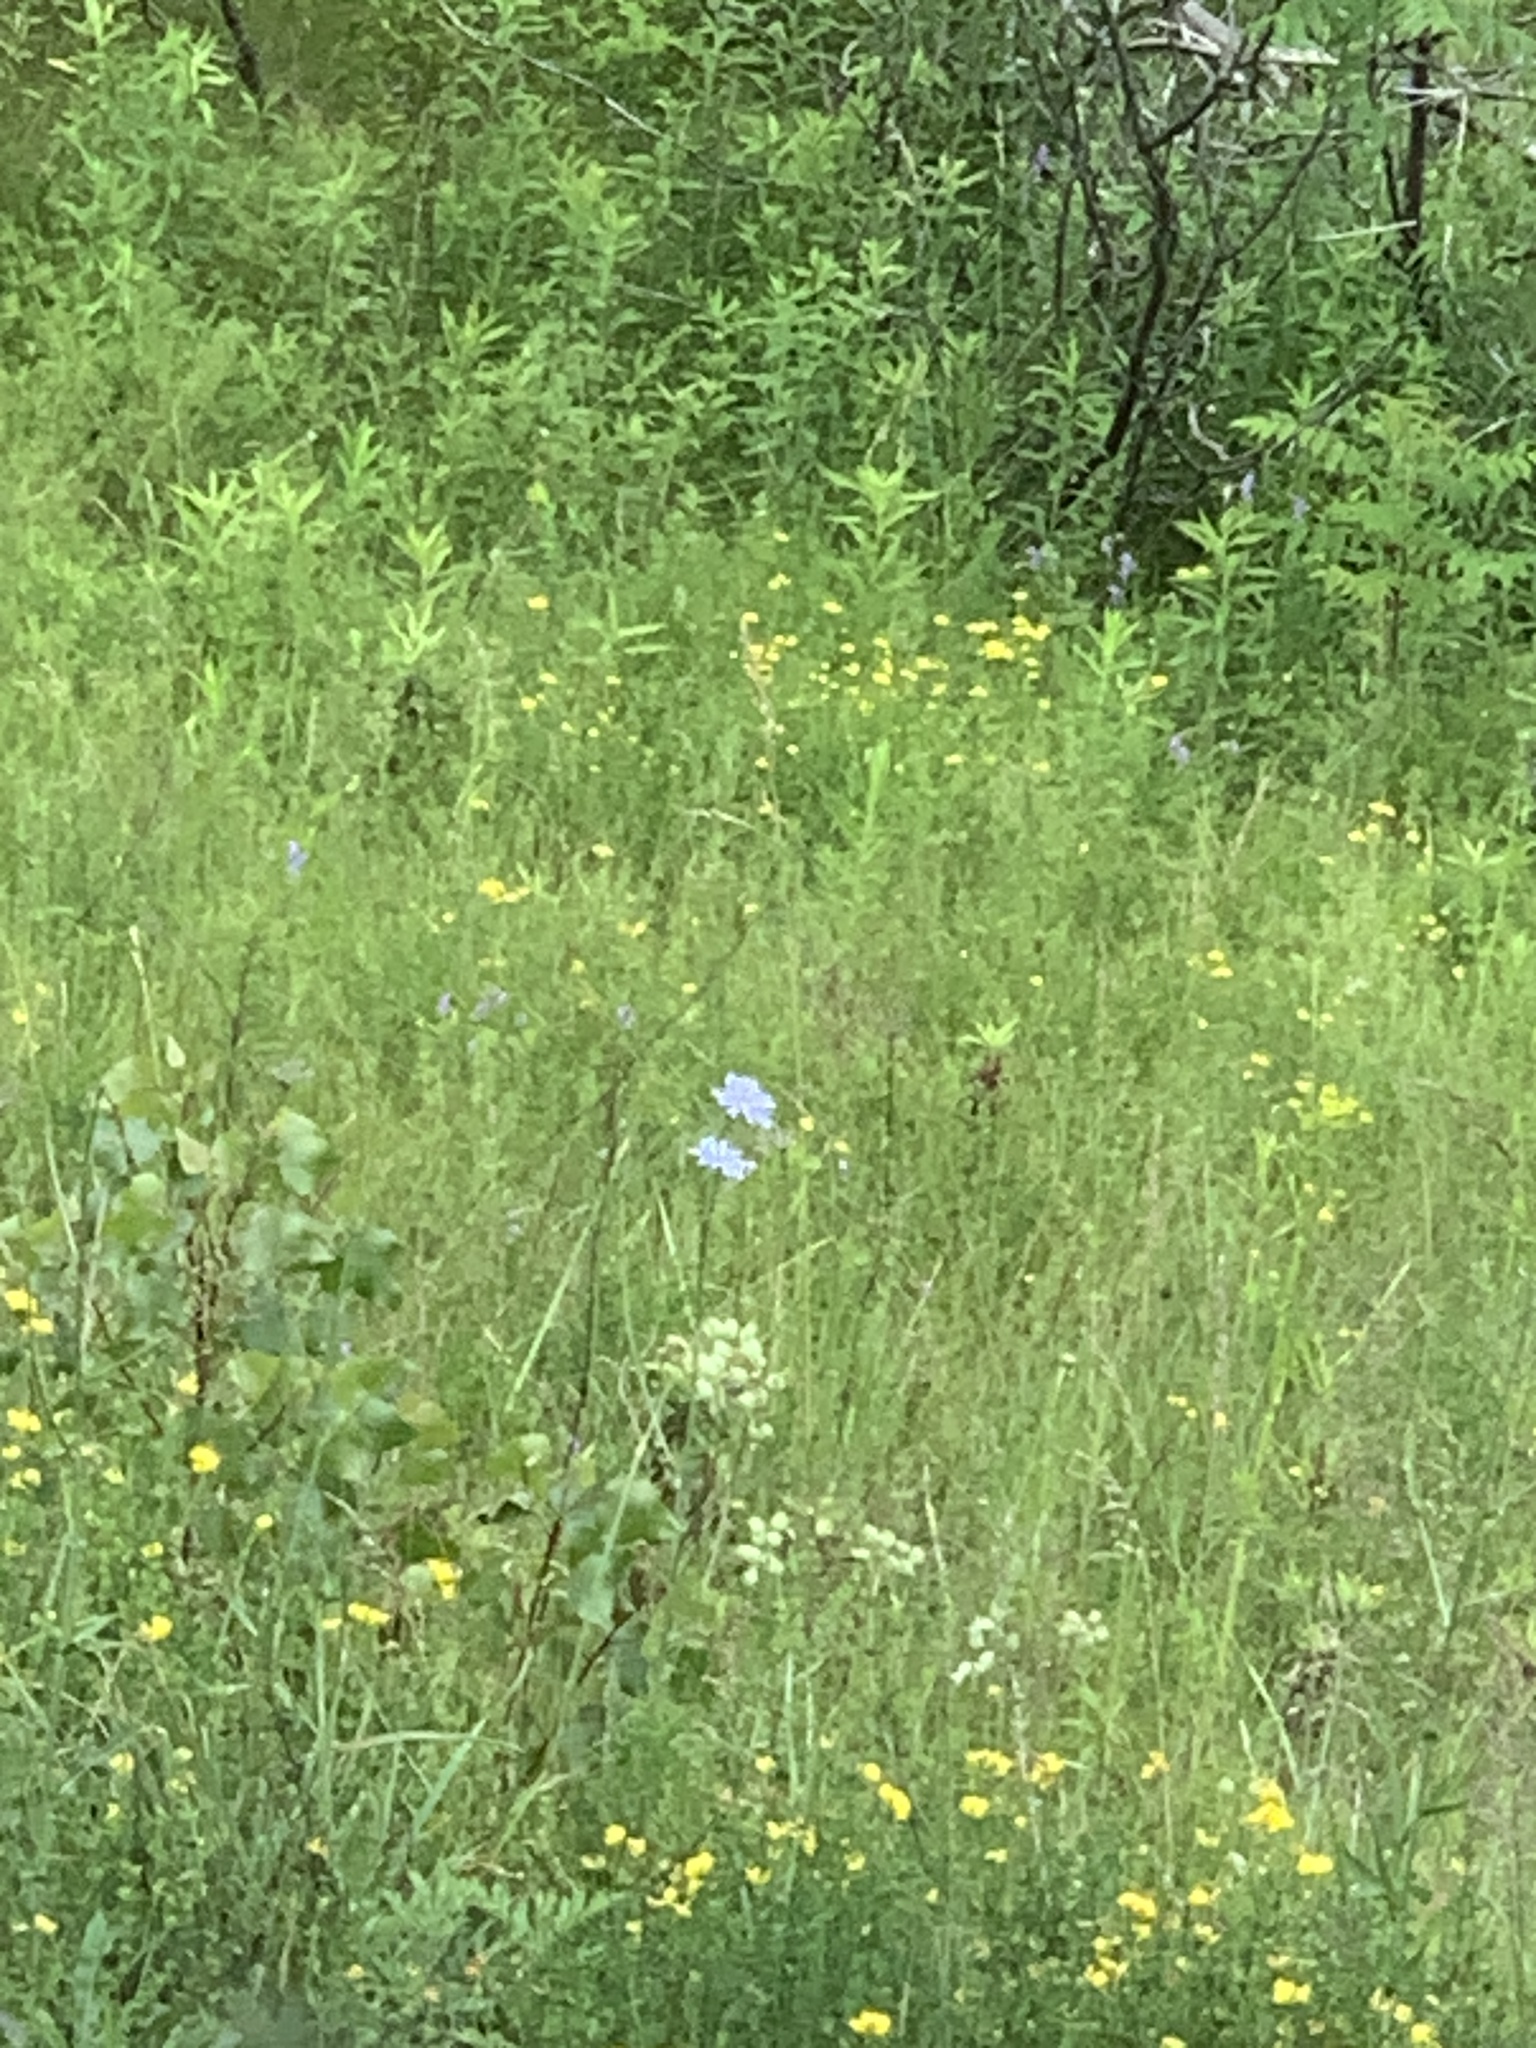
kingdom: Plantae
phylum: Tracheophyta
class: Magnoliopsida
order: Asterales
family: Asteraceae
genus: Cichorium
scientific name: Cichorium intybus
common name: Chicory
